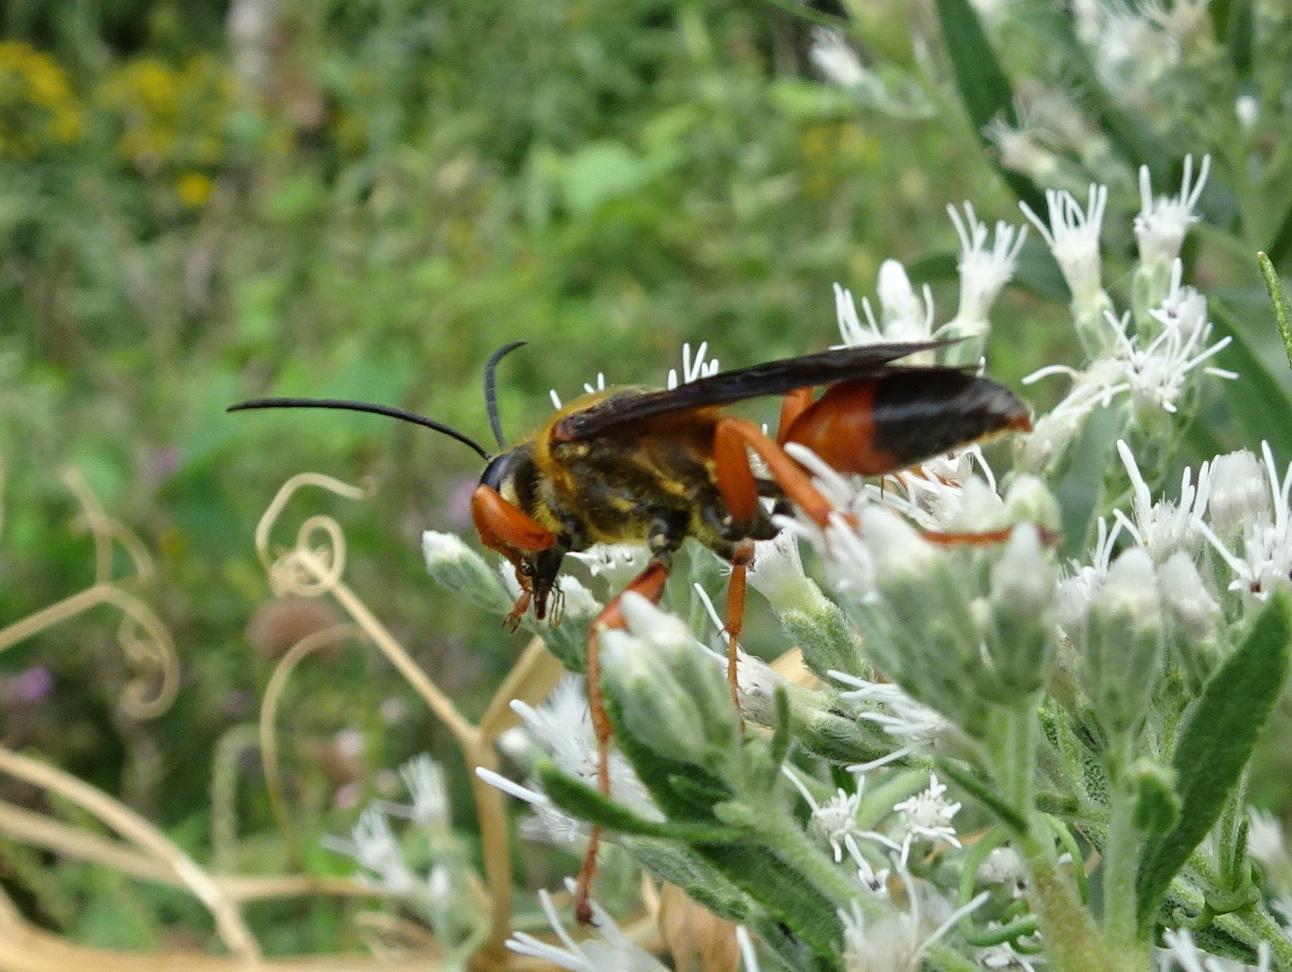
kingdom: Animalia
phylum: Arthropoda
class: Insecta
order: Hymenoptera
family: Sphecidae
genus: Sphex
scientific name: Sphex ichneumoneus
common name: Great golden digger wasp
